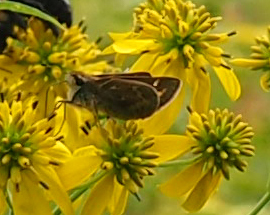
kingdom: Animalia
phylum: Arthropoda
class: Insecta
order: Lepidoptera
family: Hesperiidae
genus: Atalopedes
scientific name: Atalopedes
